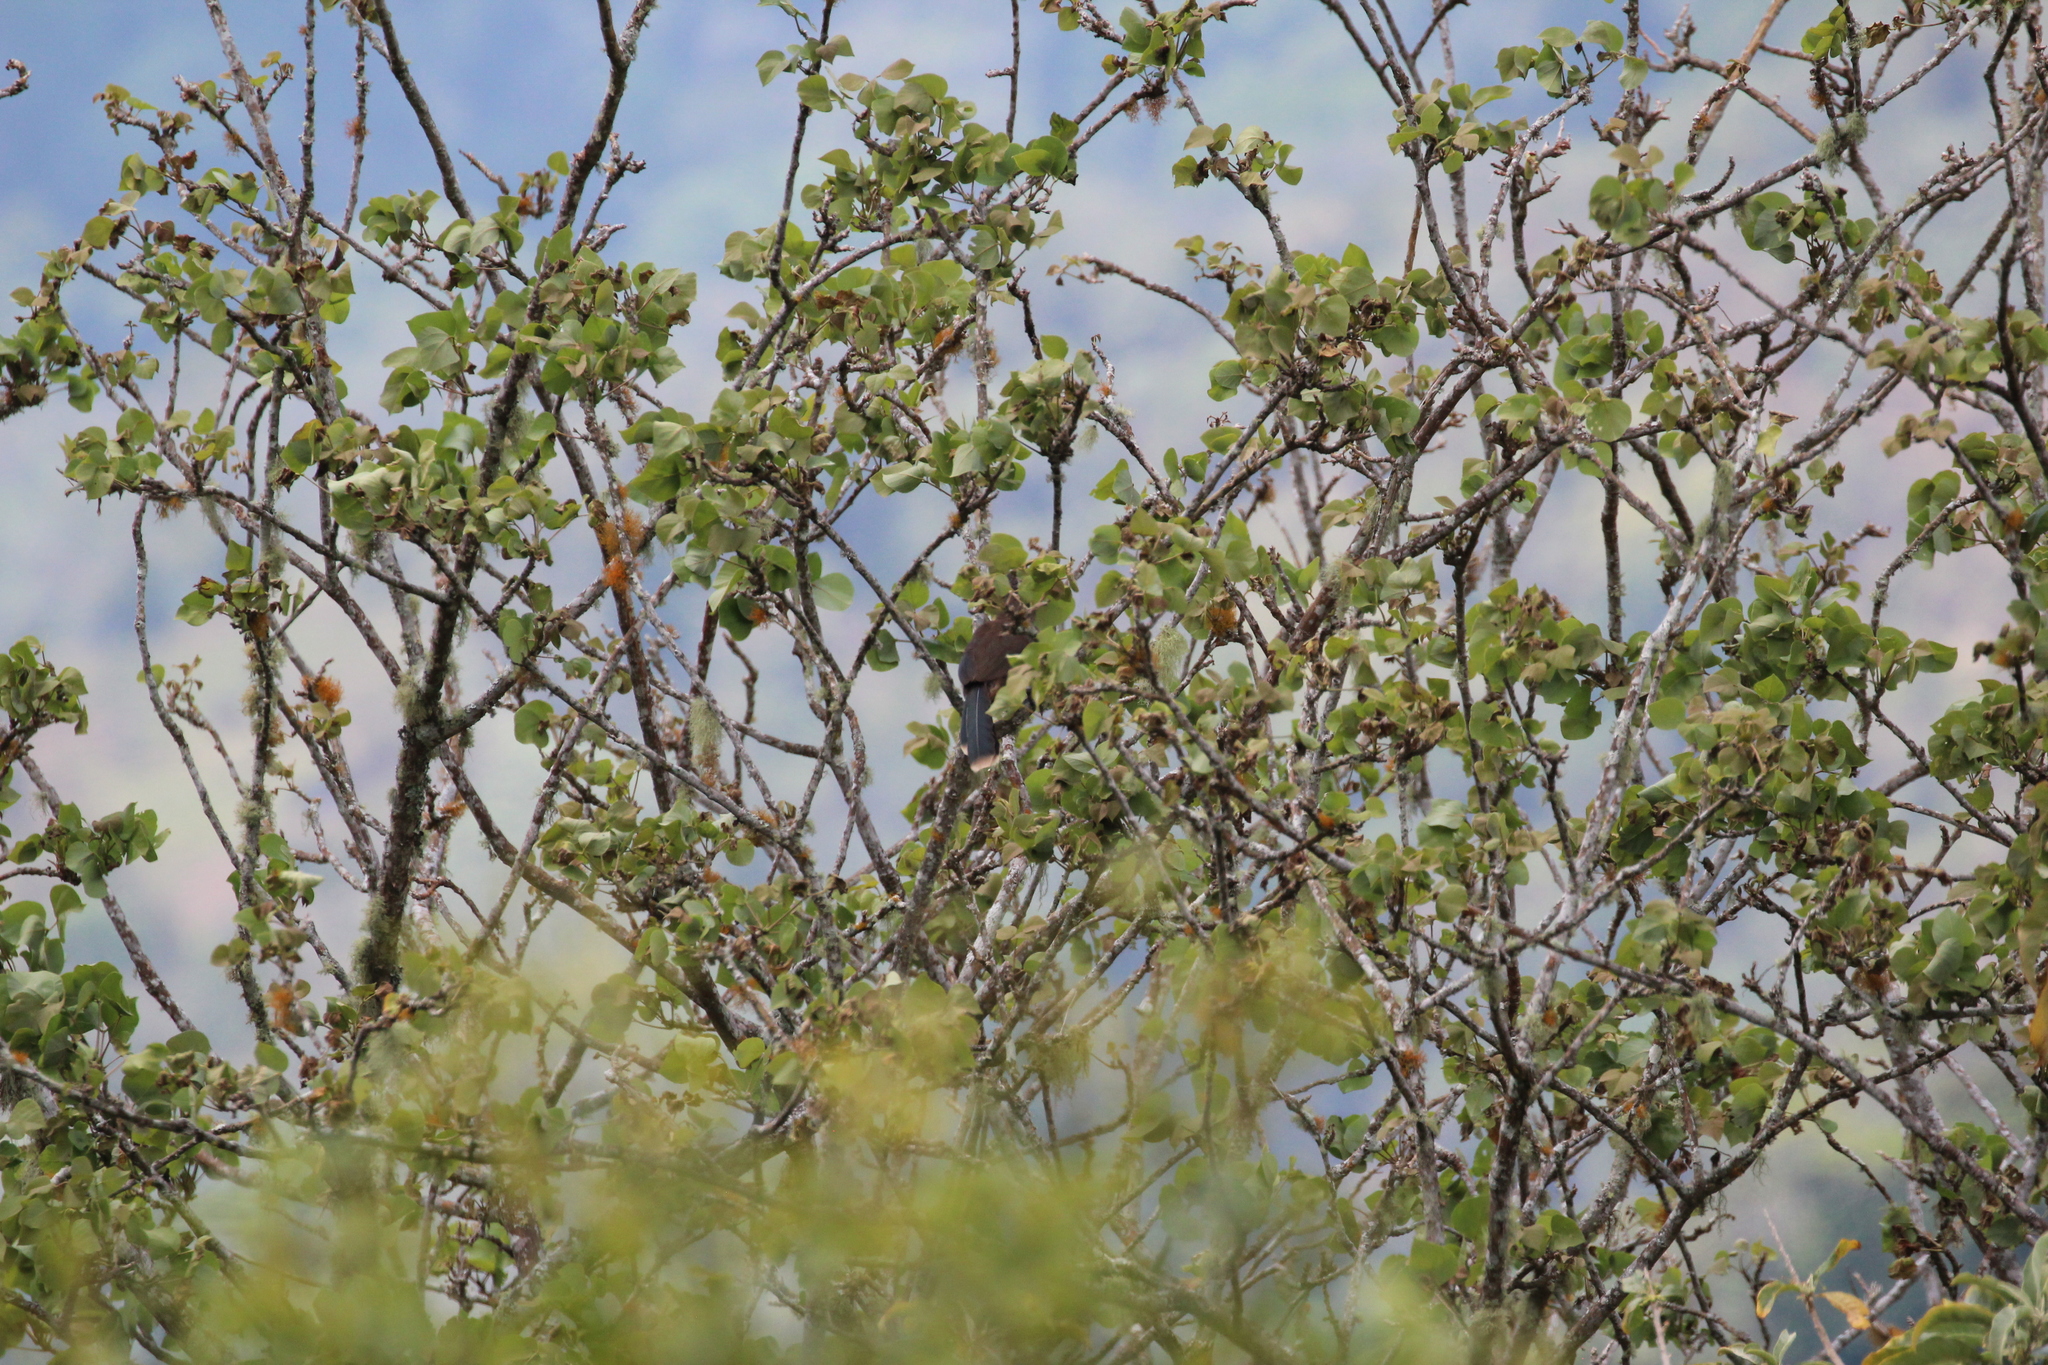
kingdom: Animalia
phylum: Chordata
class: Aves
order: Galliformes
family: Cracidae
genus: Ortalis
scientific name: Ortalis cinereiceps
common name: Grey-headed chachalaca
